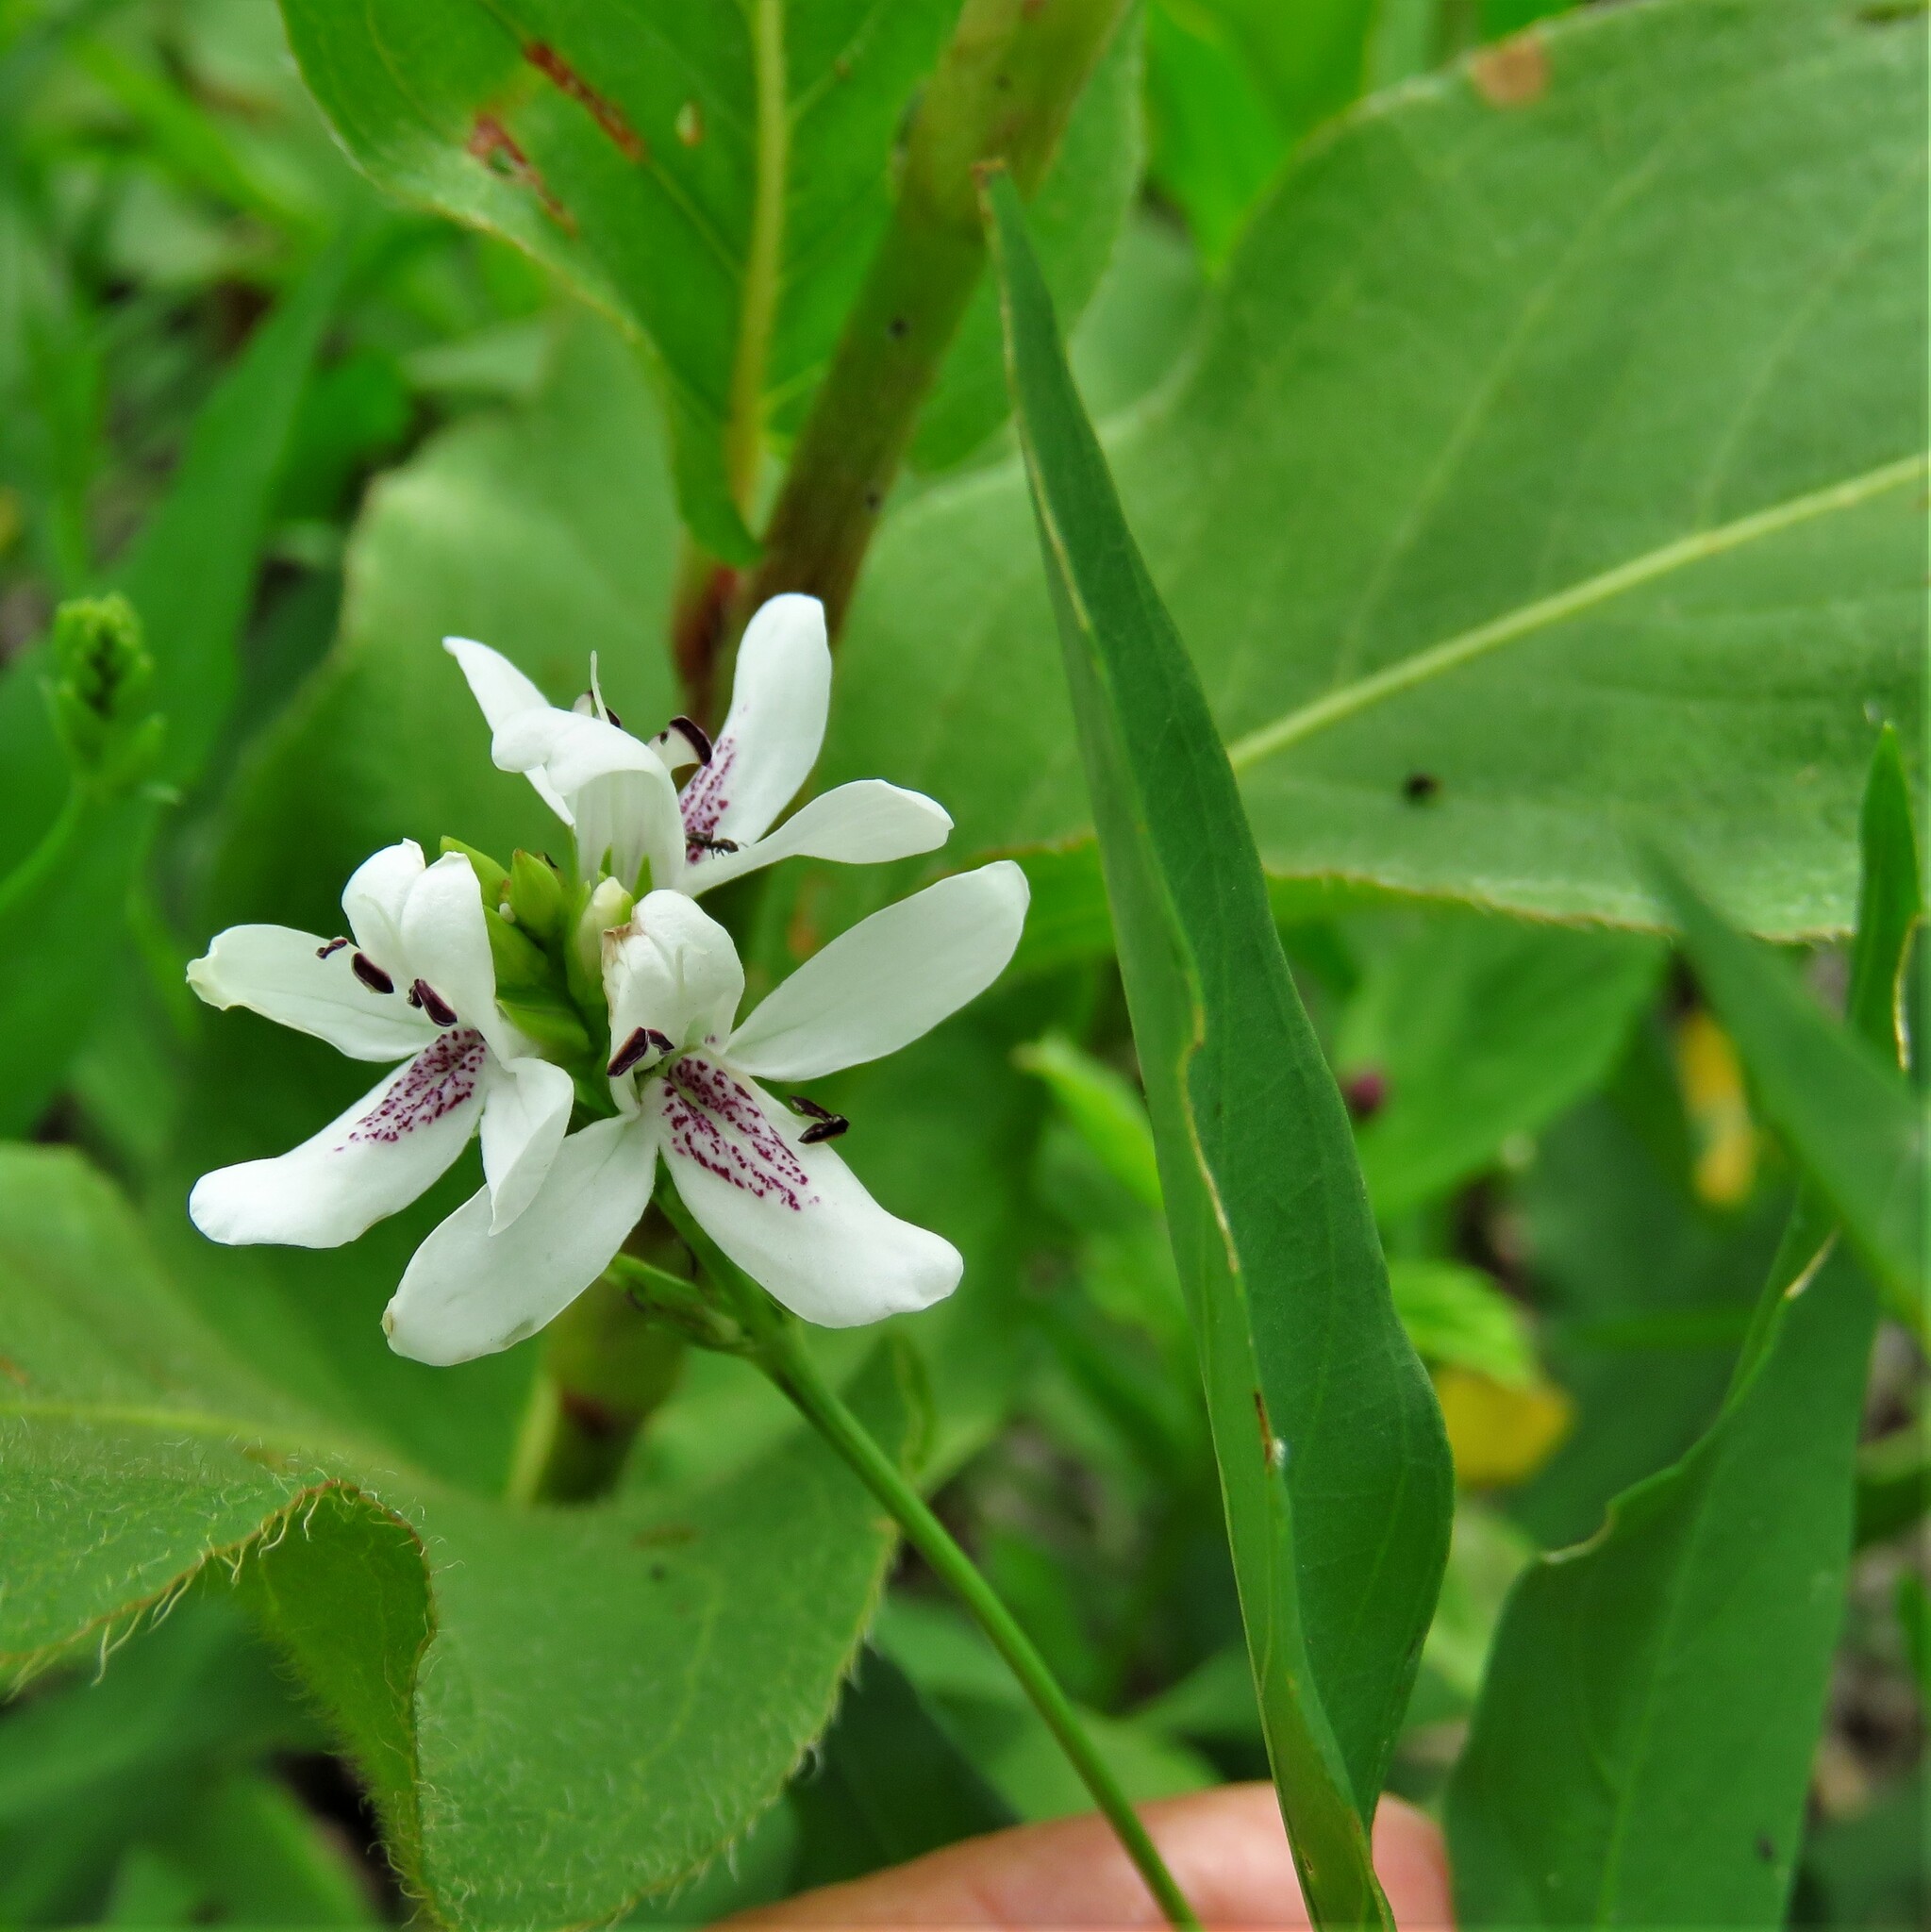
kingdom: Plantae
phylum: Tracheophyta
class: Magnoliopsida
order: Lamiales
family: Acanthaceae
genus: Dianthera
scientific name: Dianthera americana
